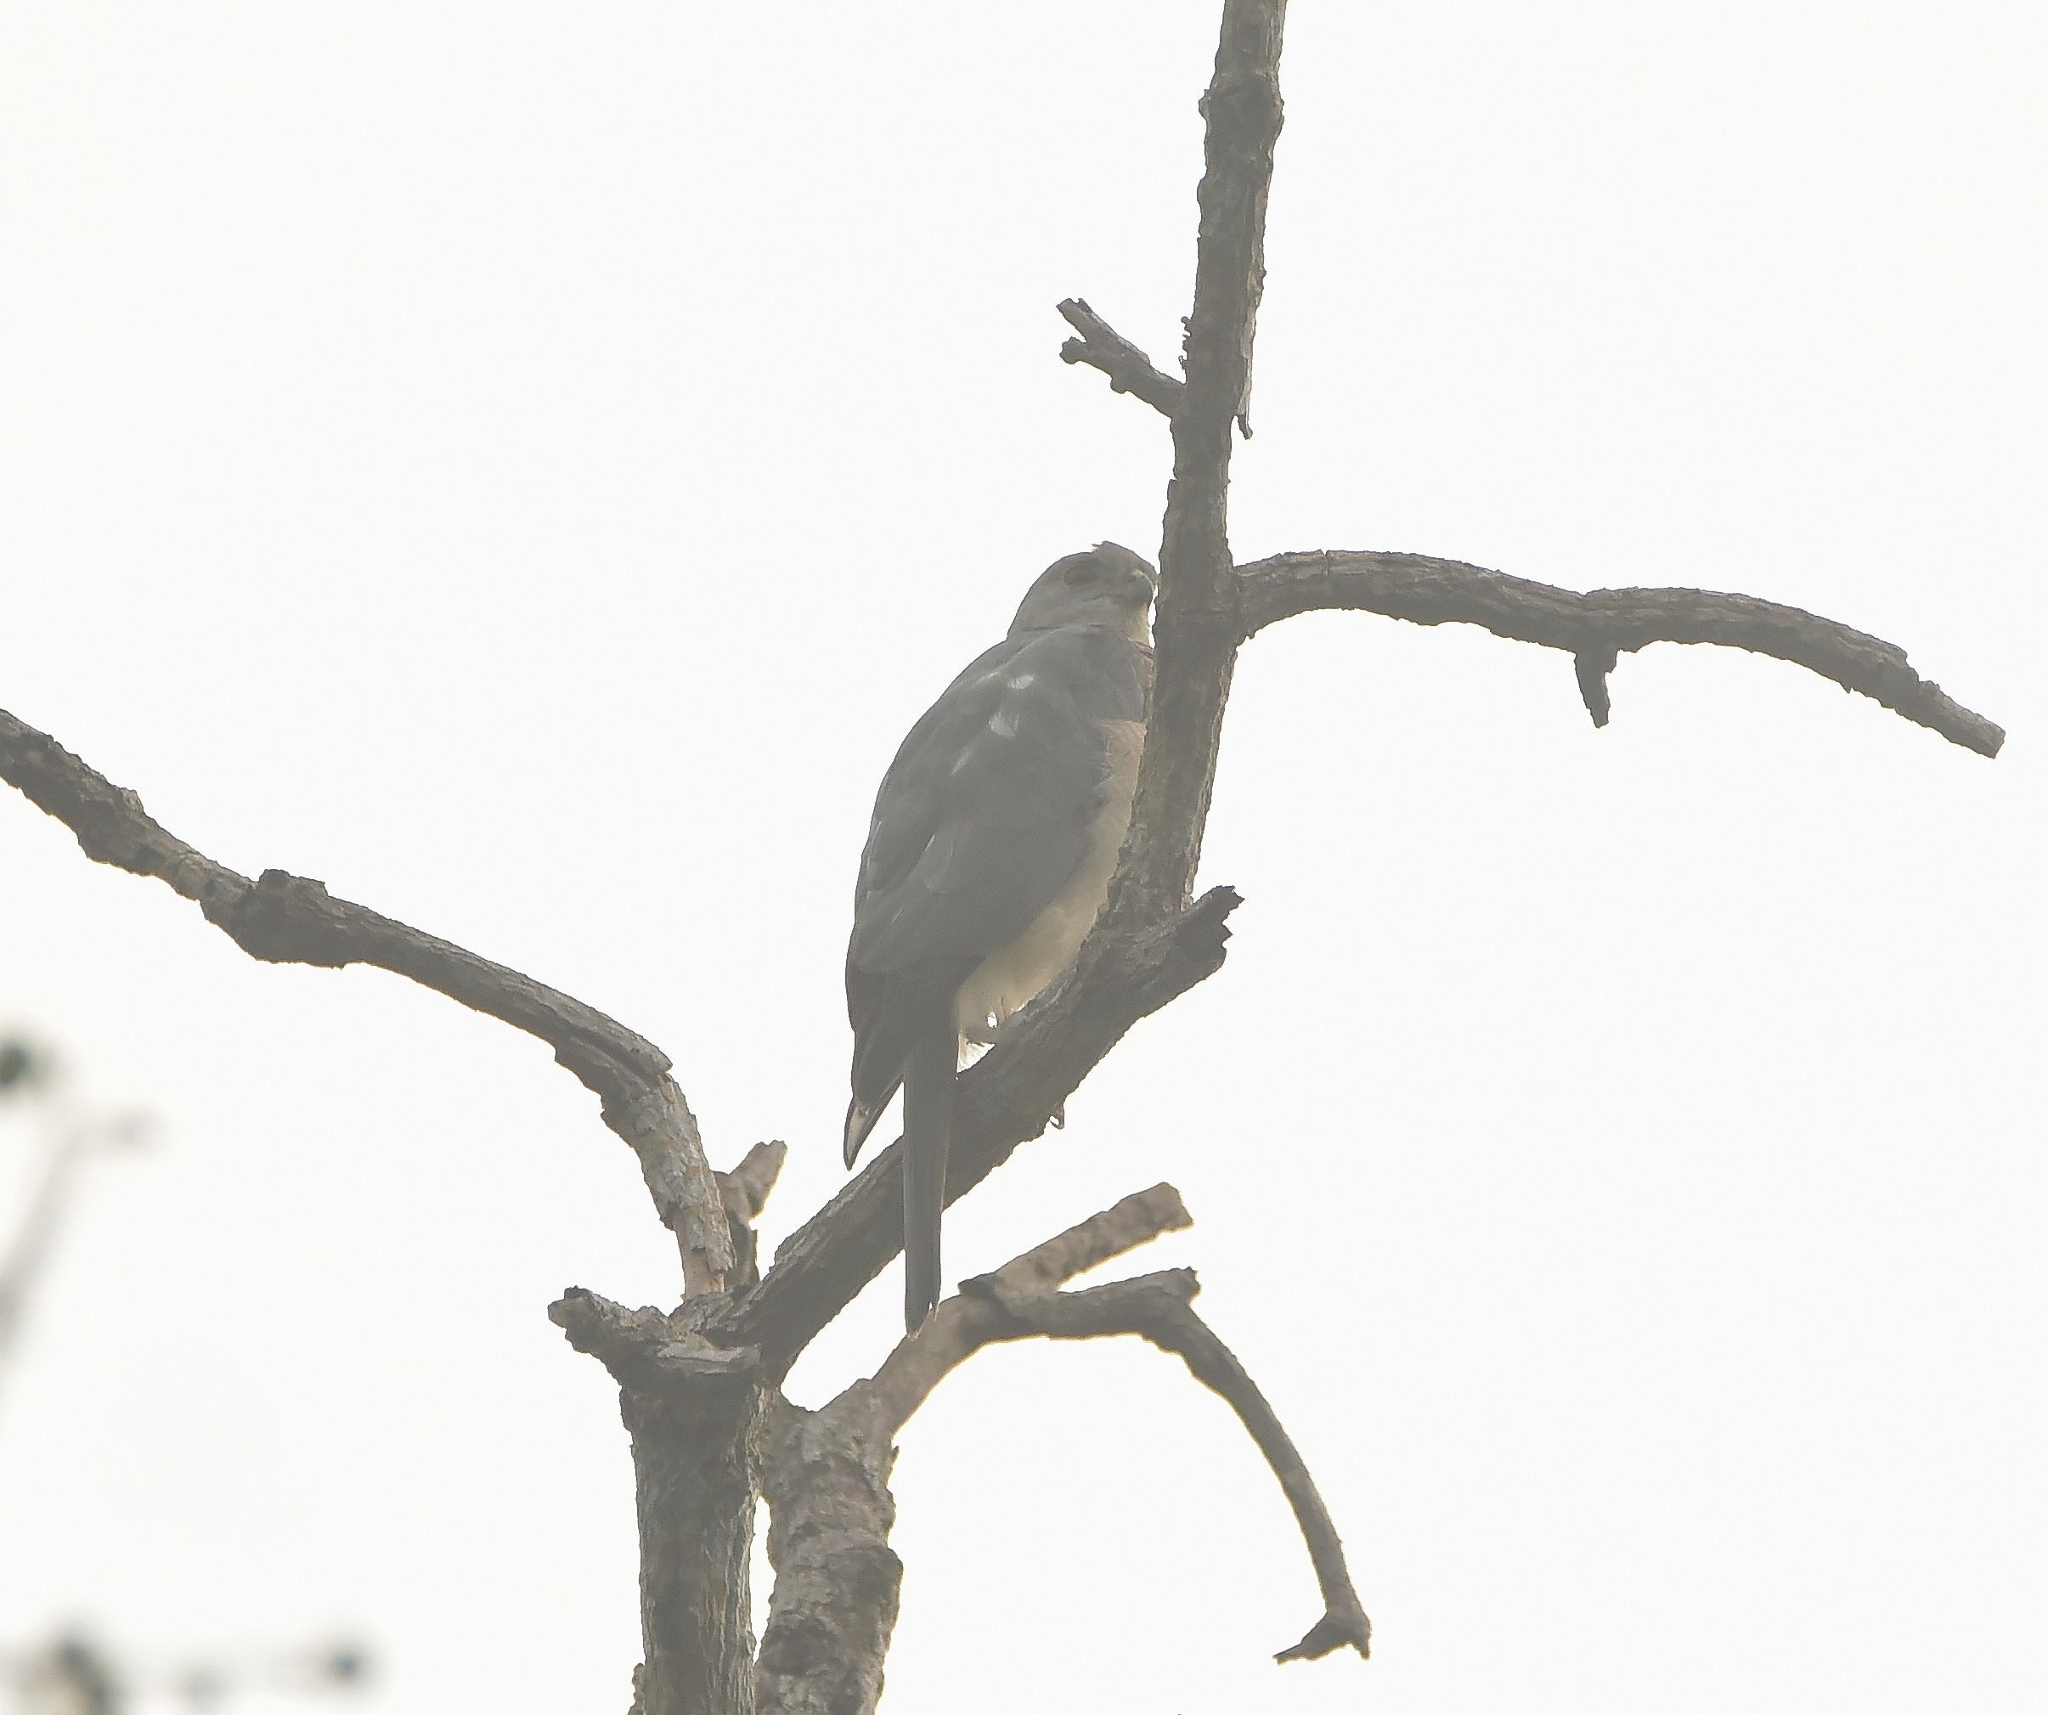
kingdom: Animalia
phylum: Chordata
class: Aves
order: Accipitriformes
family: Accipitridae
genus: Accipiter
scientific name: Accipiter badius
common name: Shikra
